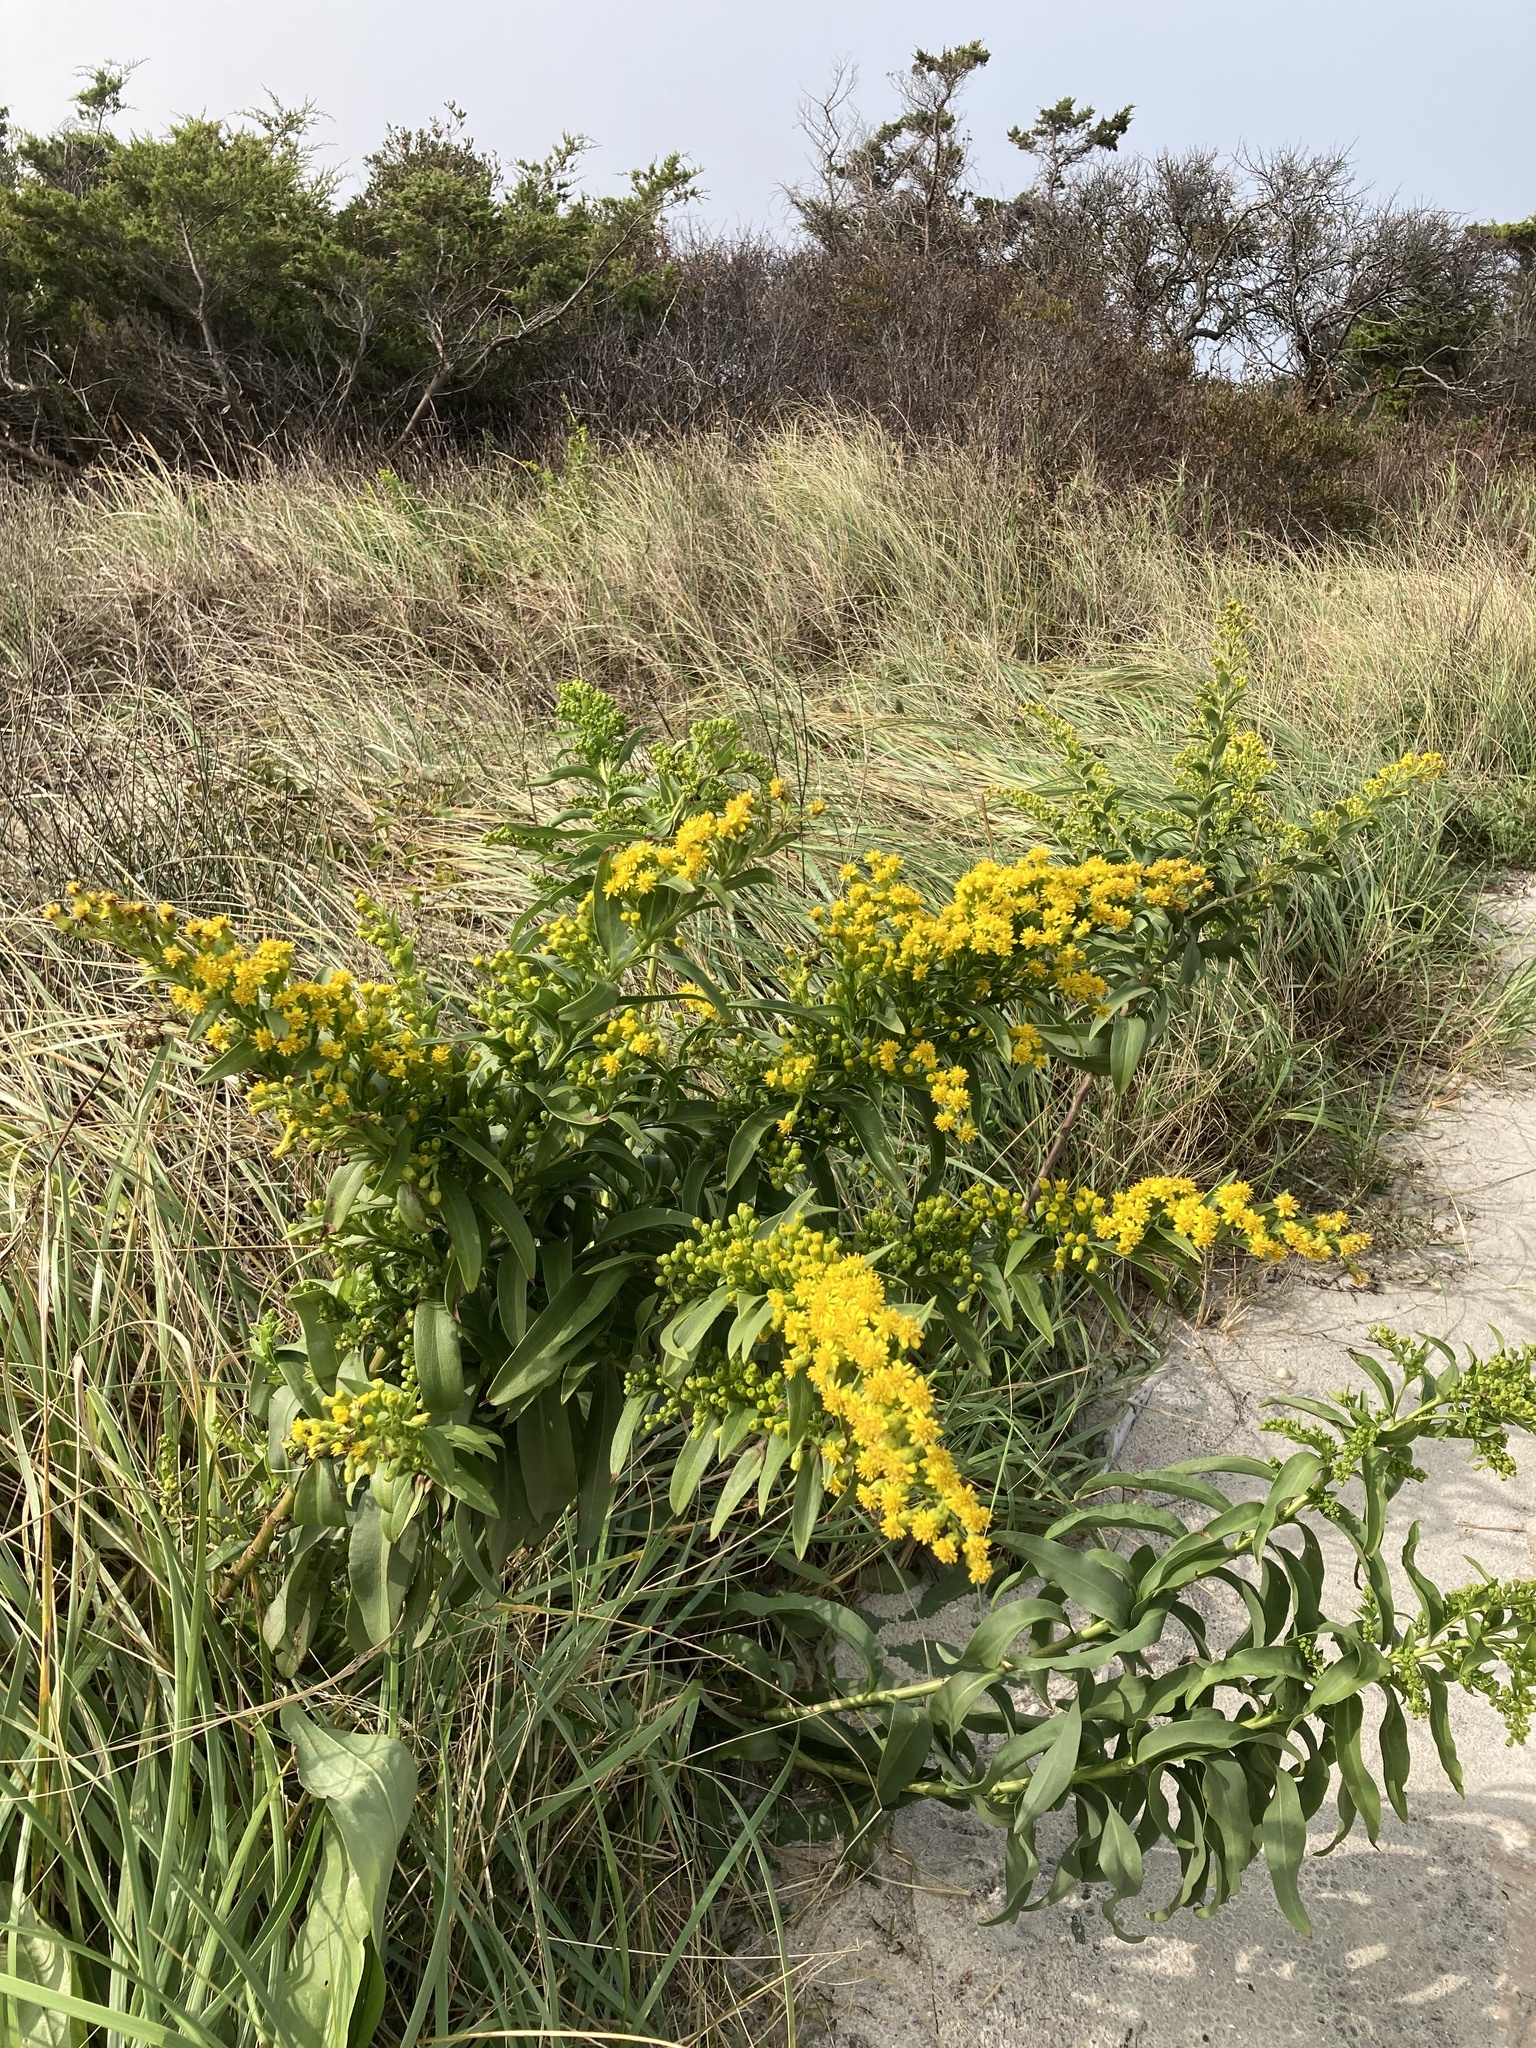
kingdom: Plantae
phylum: Tracheophyta
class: Magnoliopsida
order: Asterales
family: Asteraceae
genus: Solidago
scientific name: Solidago sempervirens
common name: Salt-marsh goldenrod
